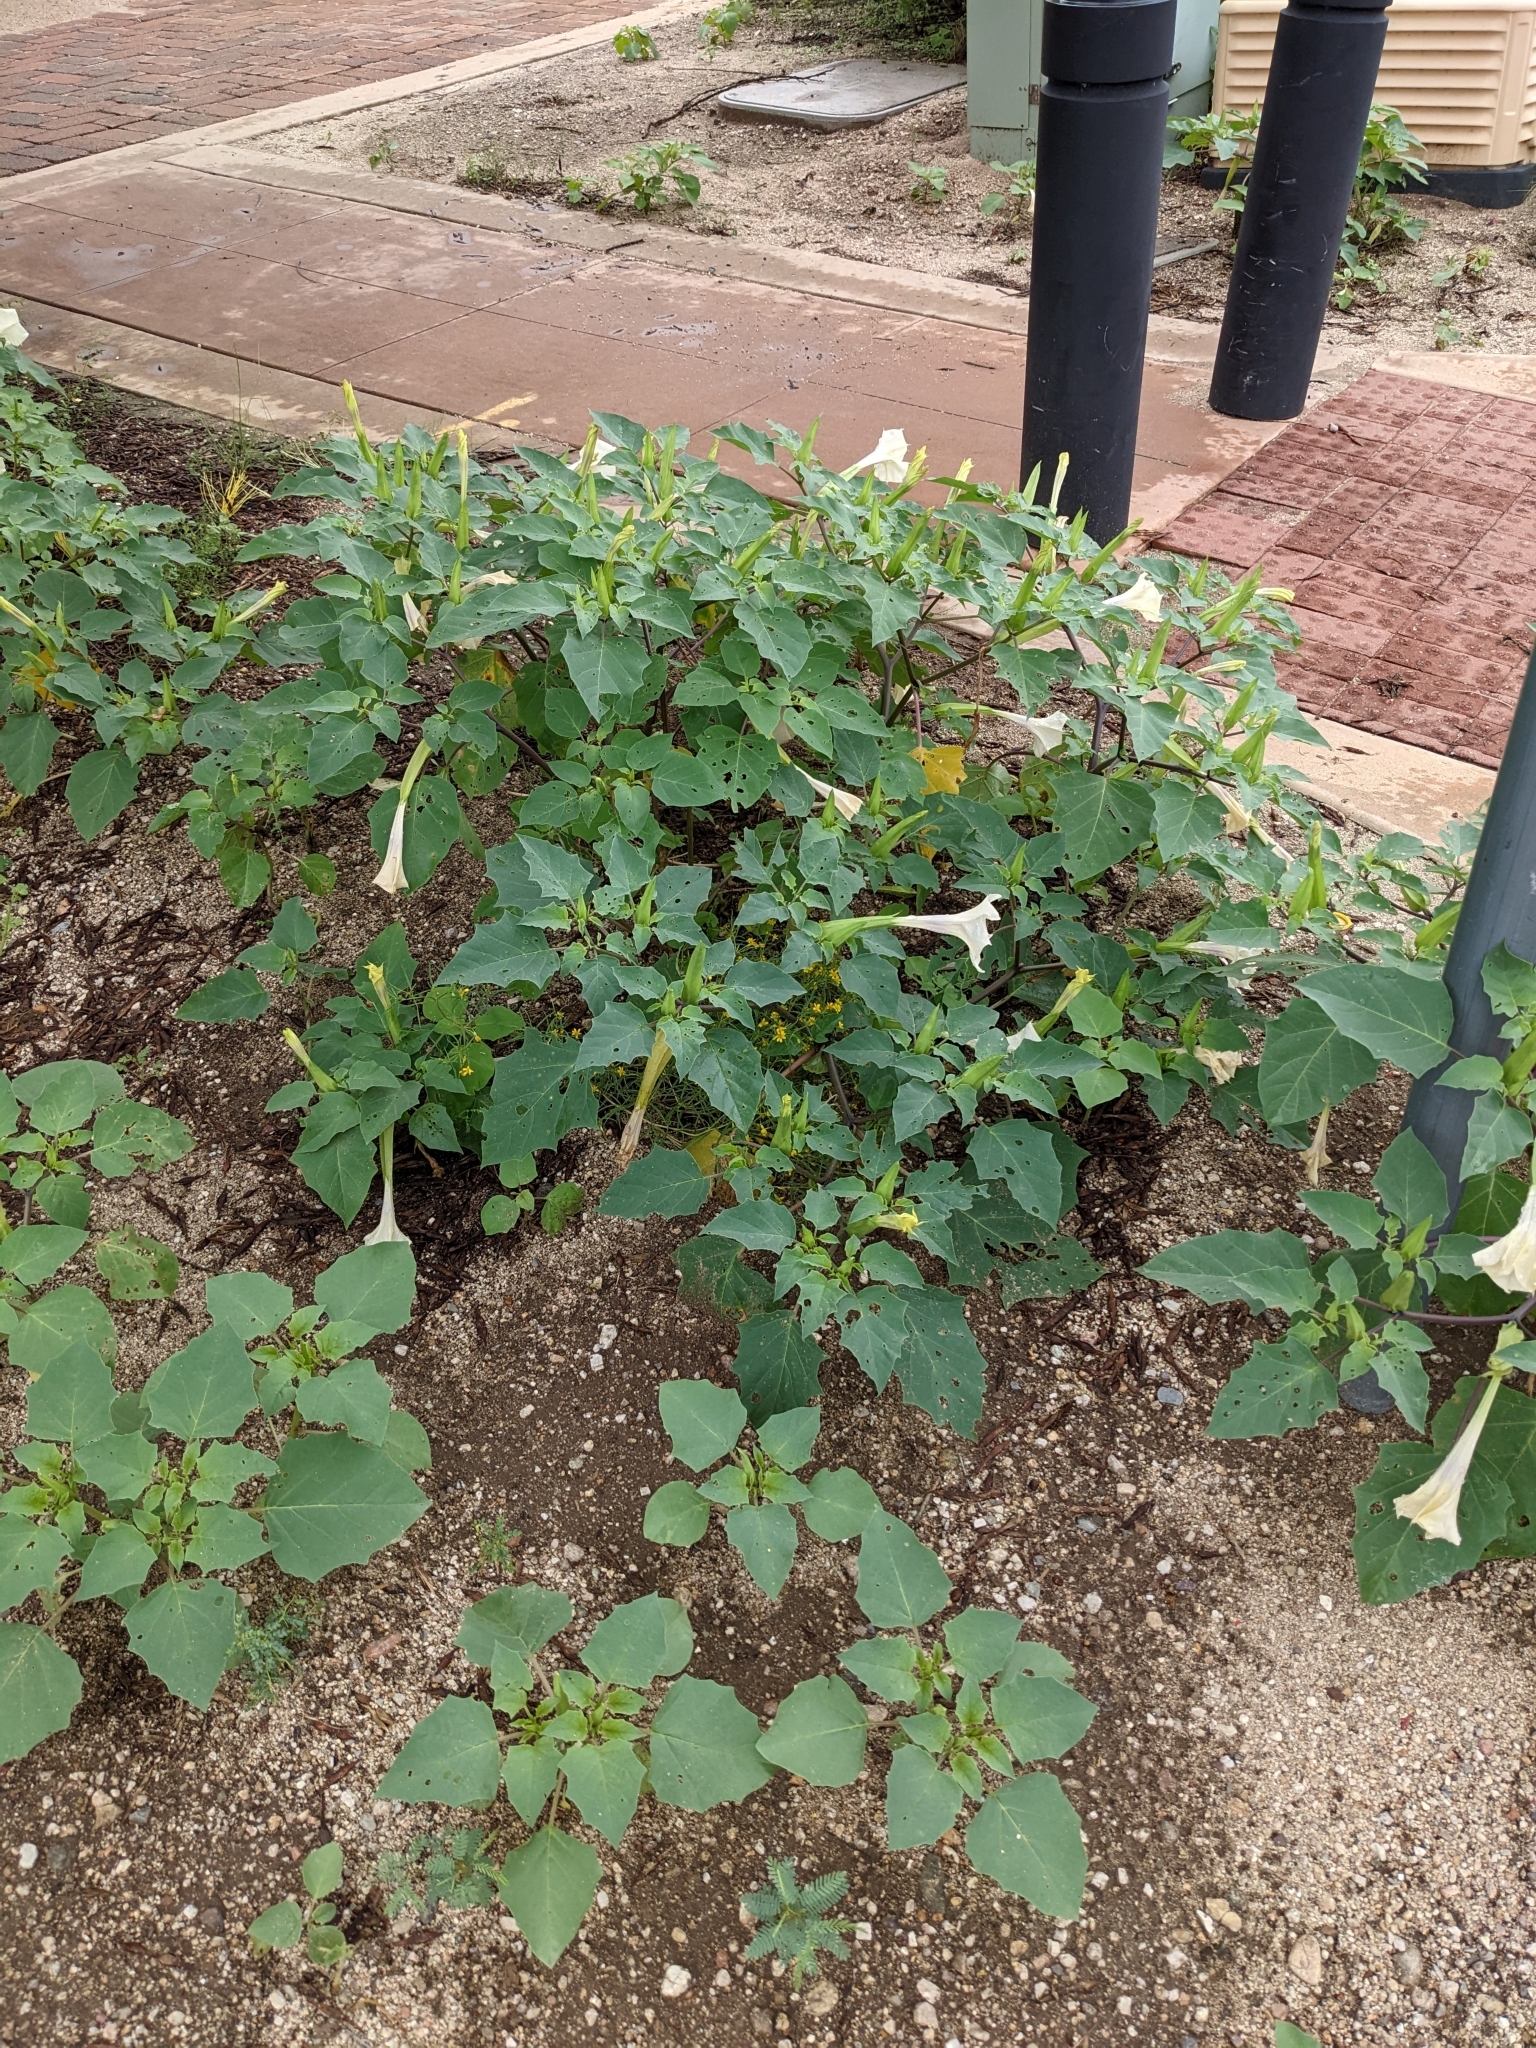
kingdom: Plantae
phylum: Tracheophyta
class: Magnoliopsida
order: Solanales
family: Solanaceae
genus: Nicotiana
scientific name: Nicotiana obtusifolia
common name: Desert tobacco
